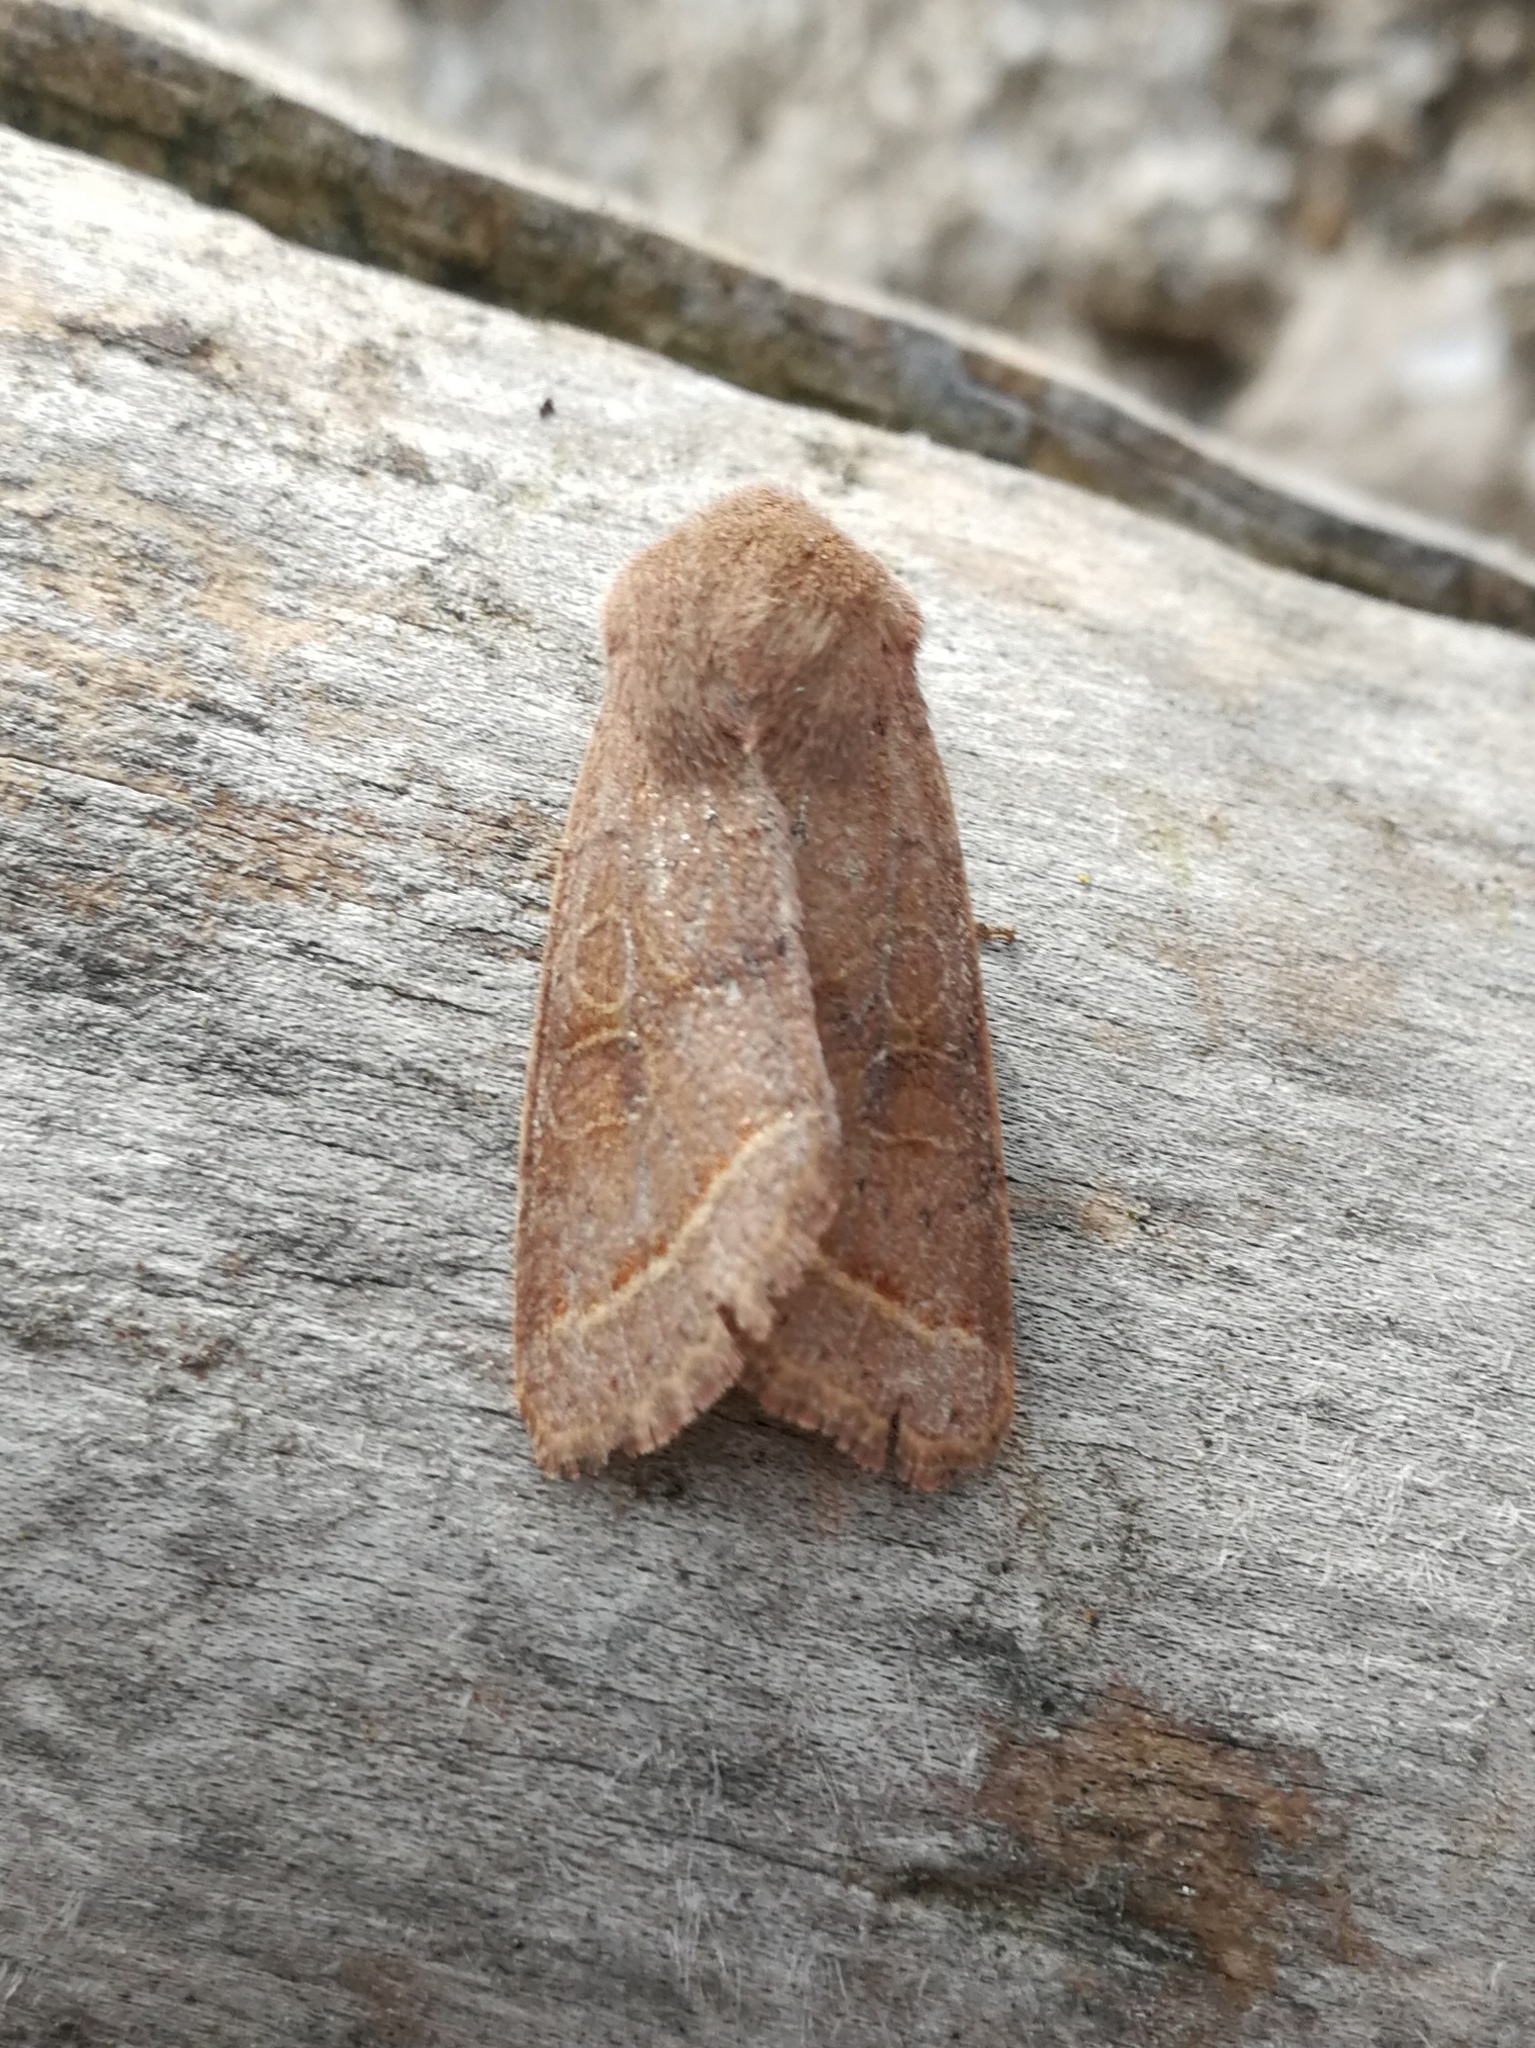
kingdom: Animalia
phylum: Arthropoda
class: Insecta
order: Lepidoptera
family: Noctuidae
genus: Orthosia
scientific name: Orthosia cerasi
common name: Common quaker
